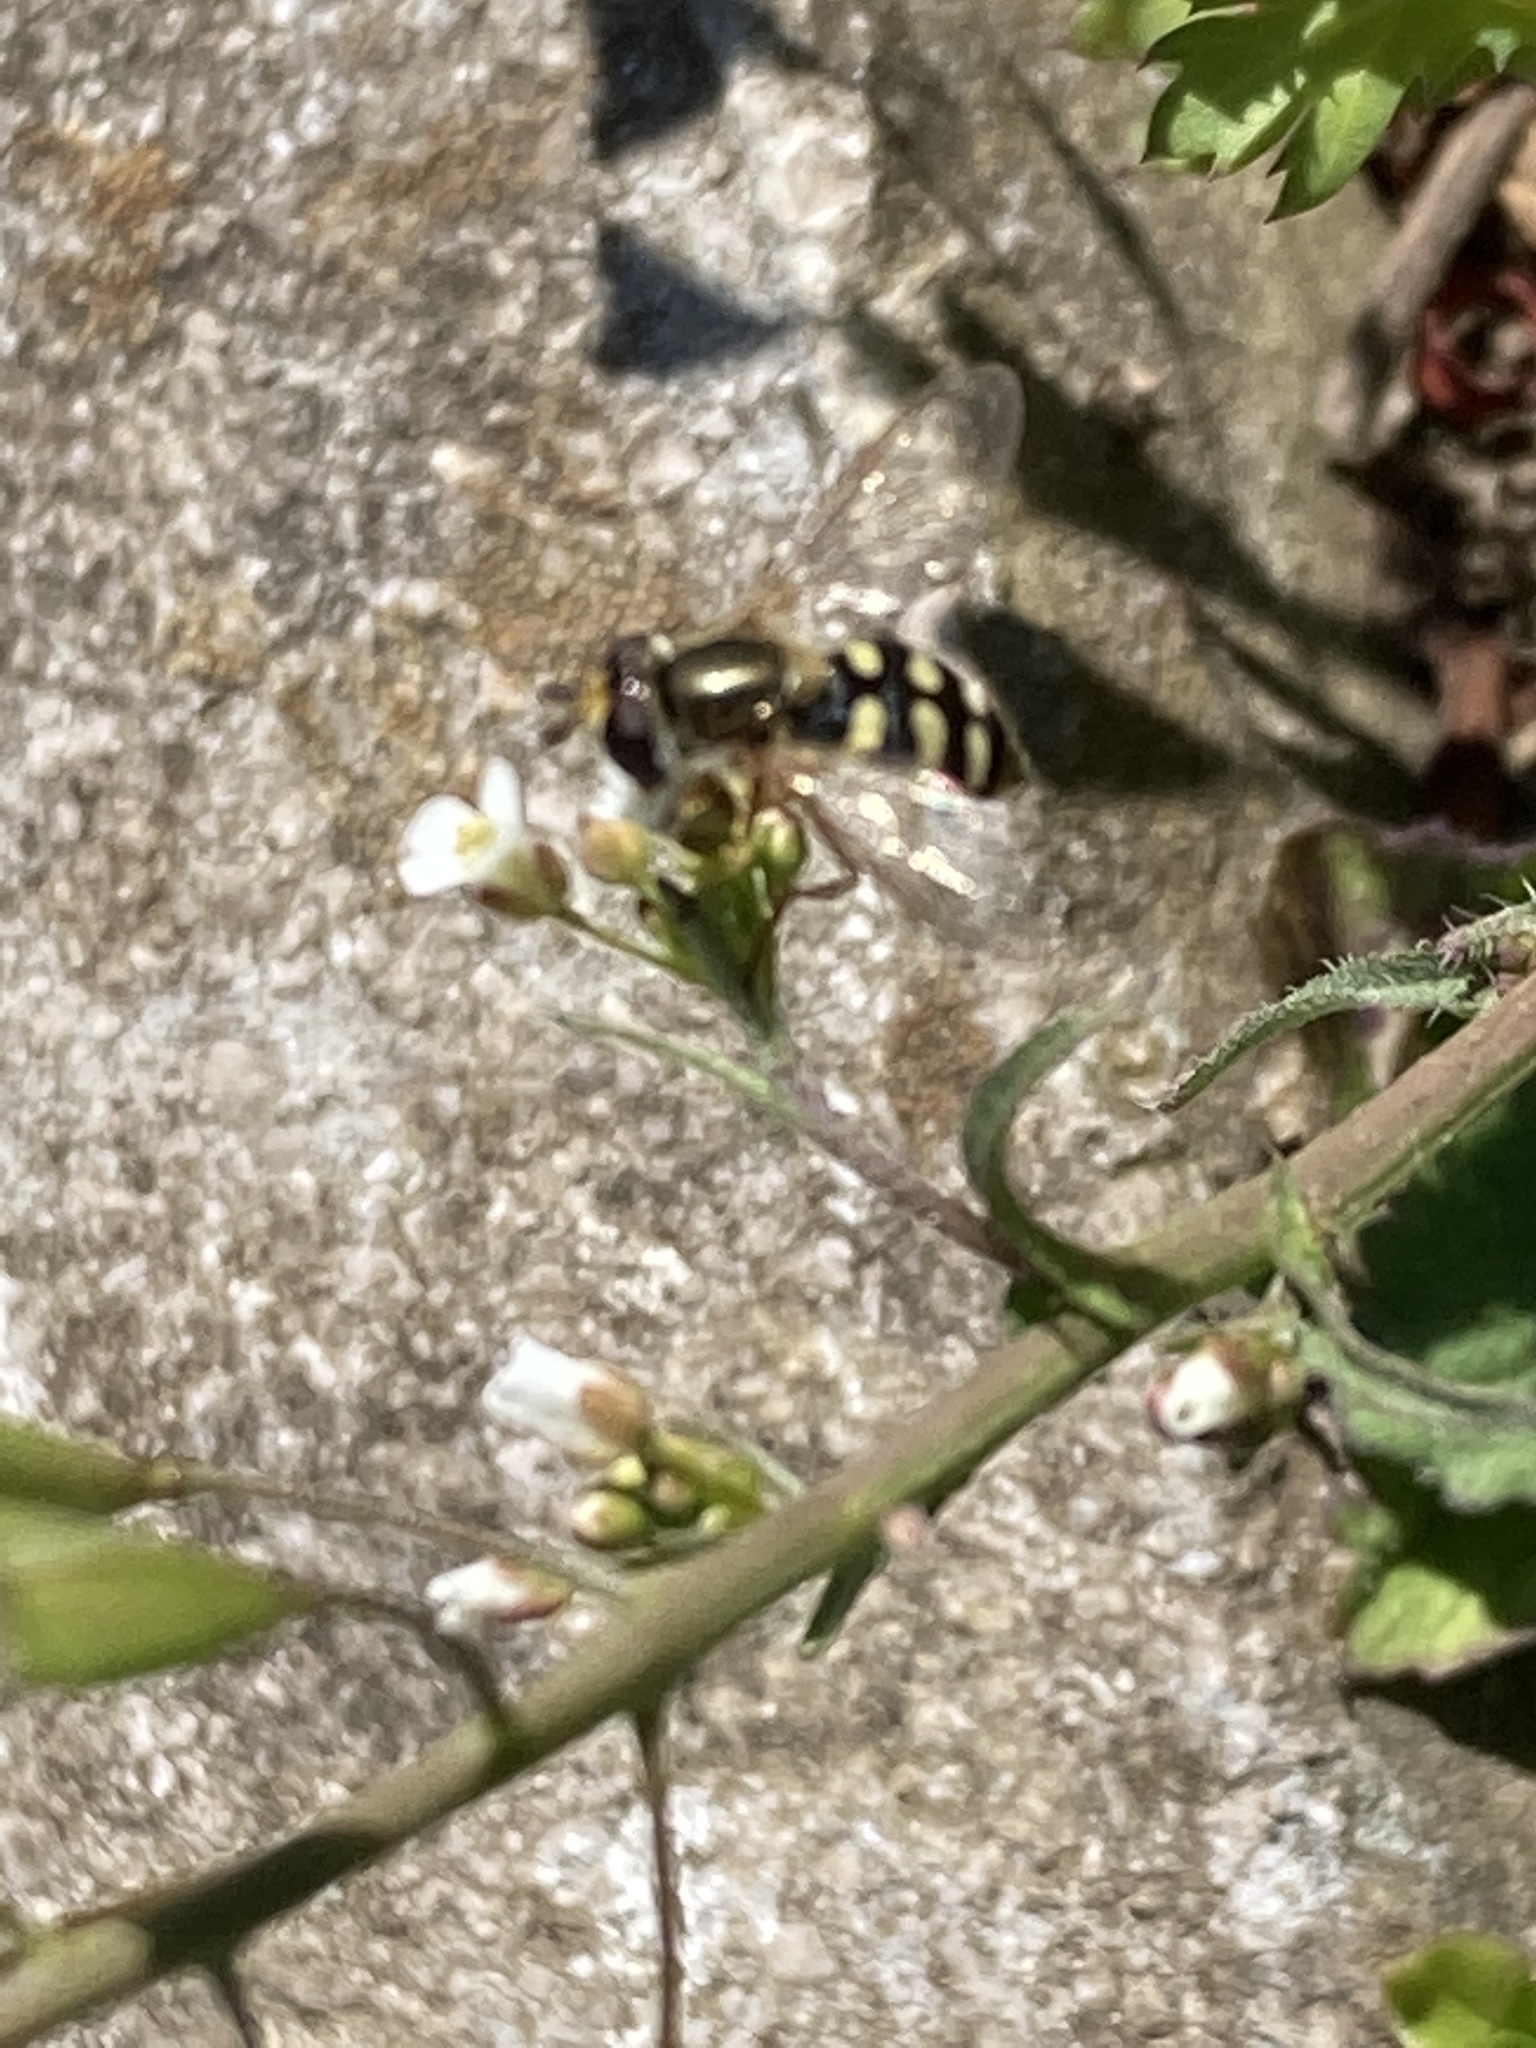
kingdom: Animalia
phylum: Arthropoda
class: Insecta
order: Diptera
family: Syrphidae
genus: Eupeodes
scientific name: Eupeodes
